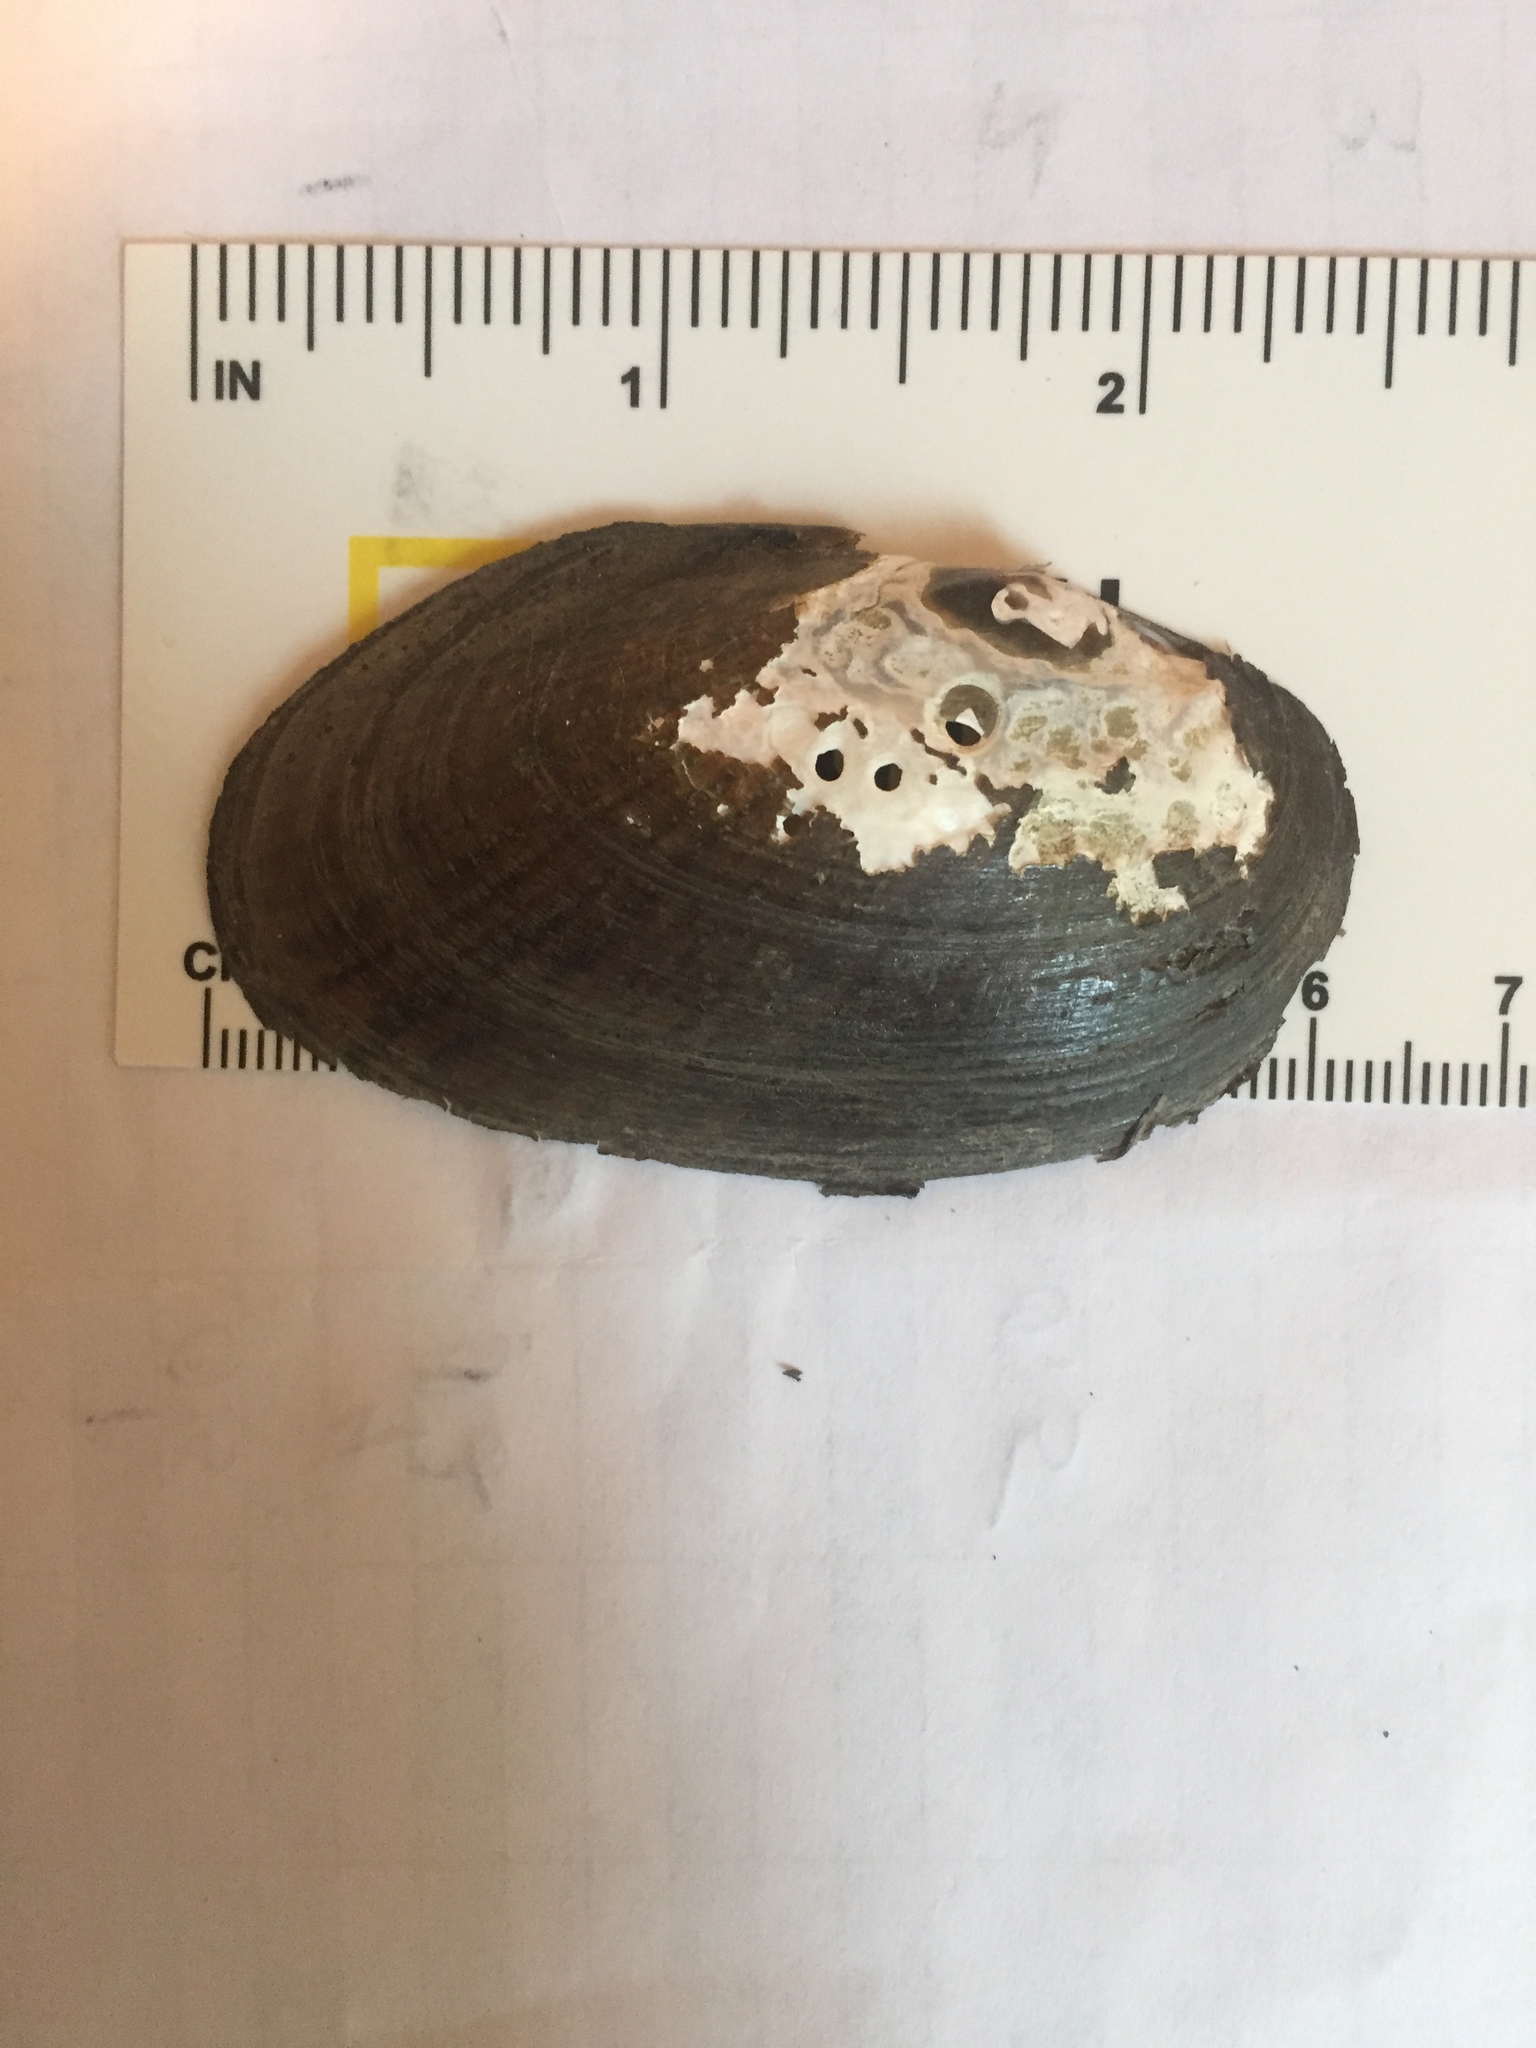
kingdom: Animalia
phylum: Mollusca
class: Bivalvia
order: Unionida
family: Unionidae
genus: Elliptio
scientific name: Elliptio complanata
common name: Eastern elliptio
